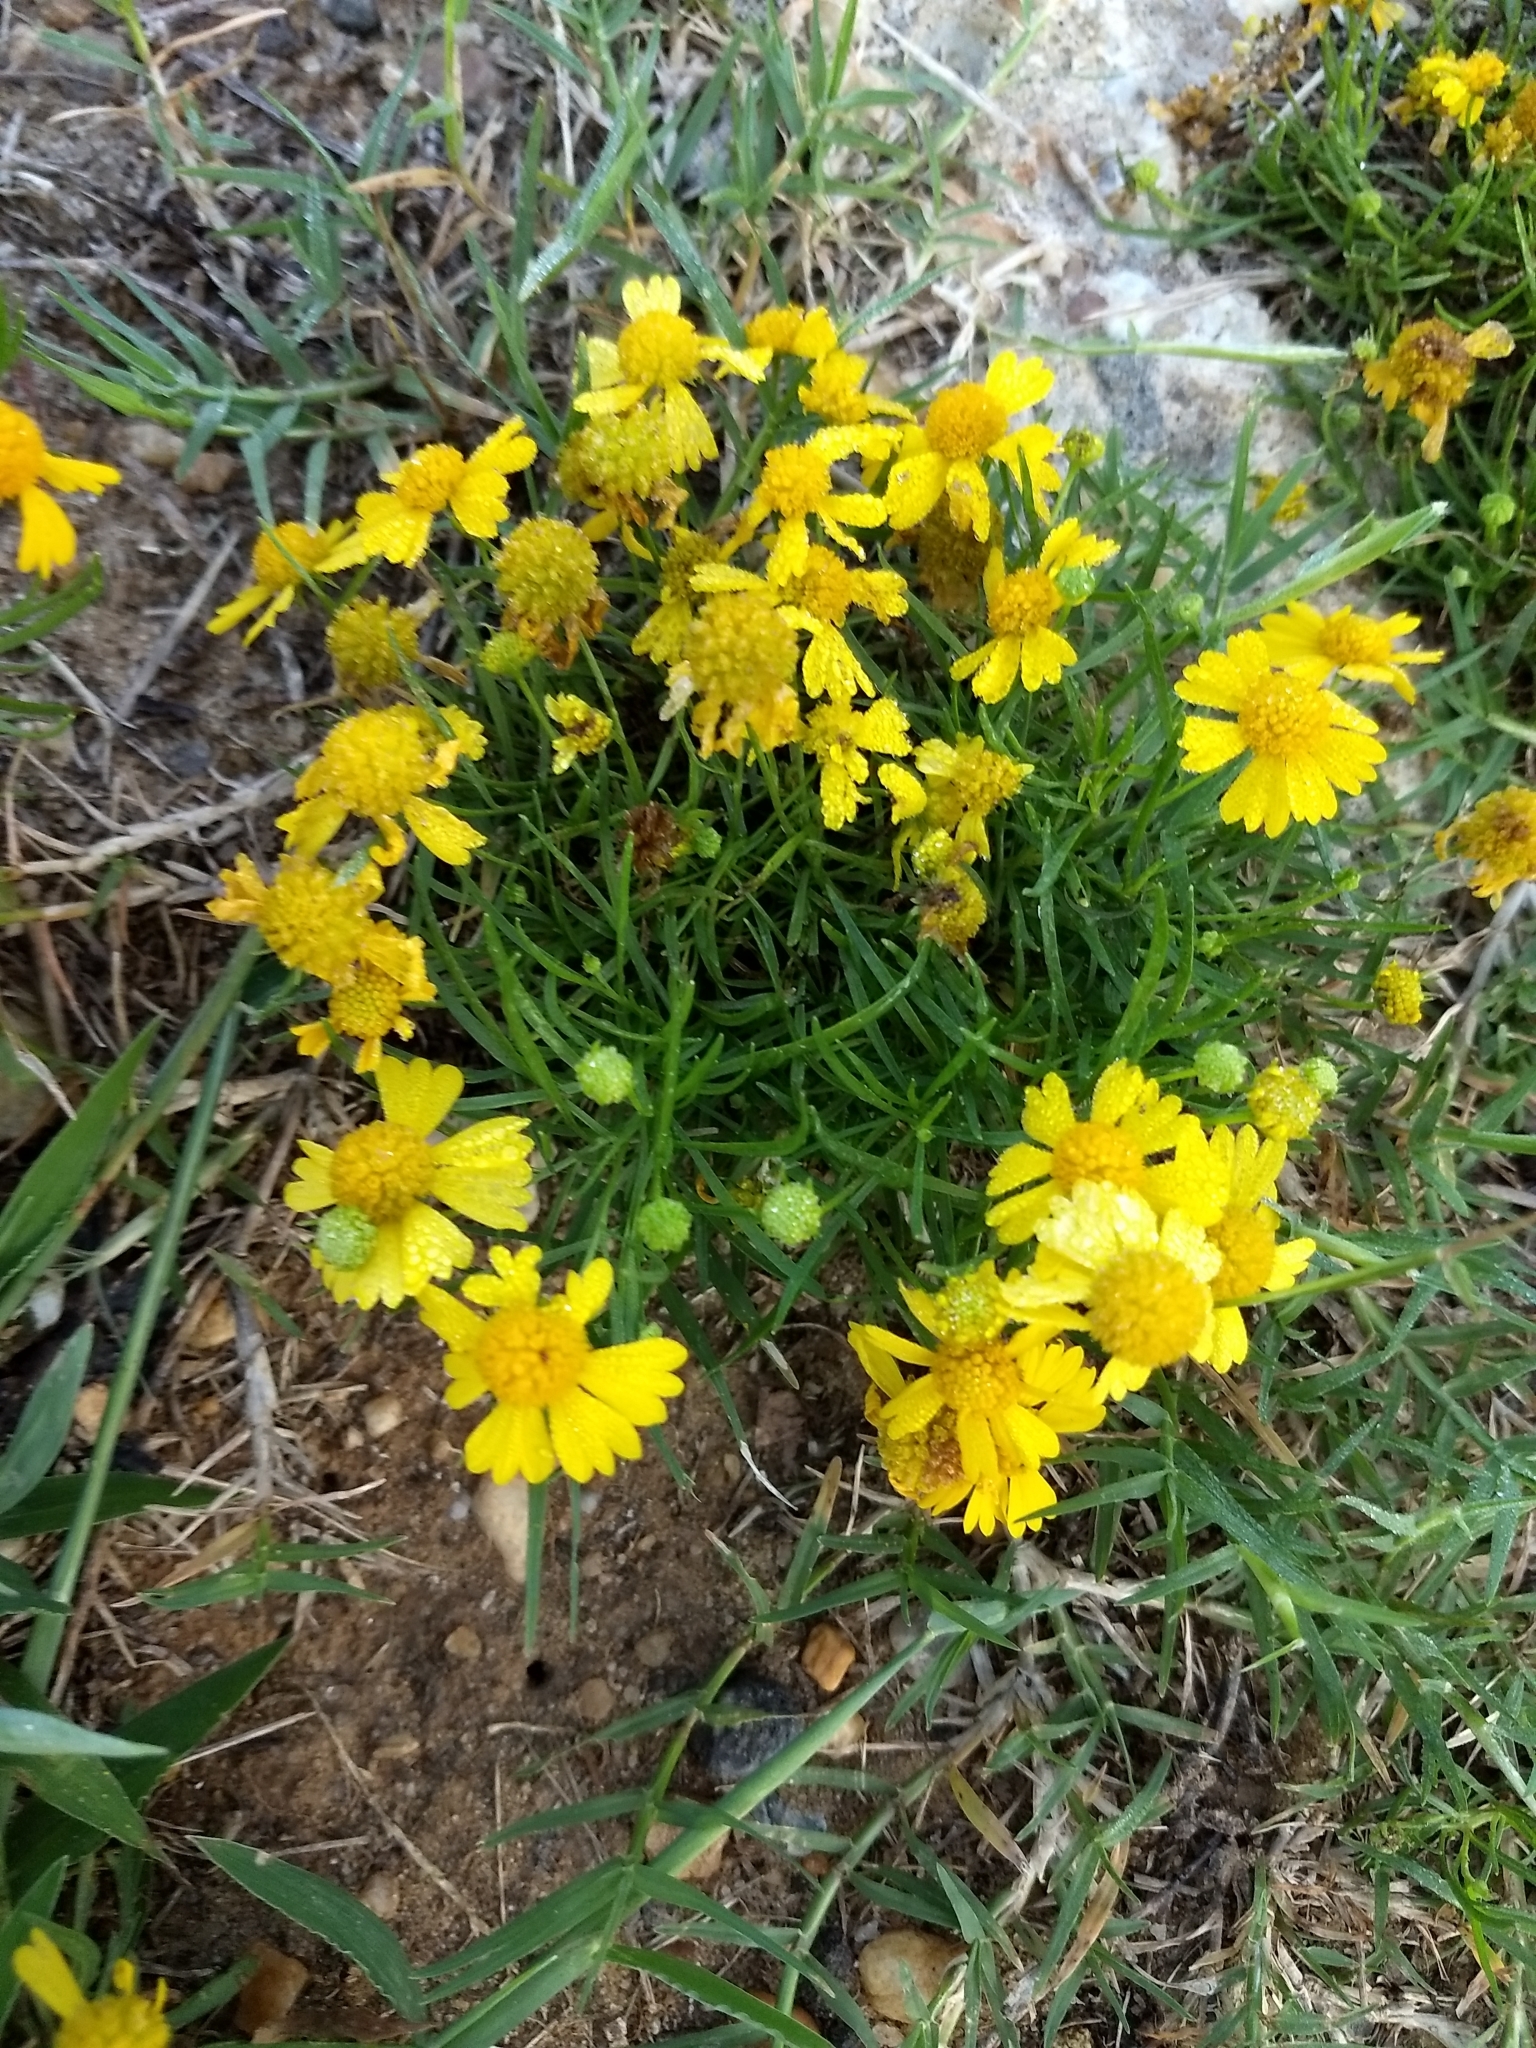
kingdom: Plantae
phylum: Tracheophyta
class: Magnoliopsida
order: Asterales
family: Asteraceae
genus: Helenium
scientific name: Helenium amarum
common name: Bitter sneezeweed
